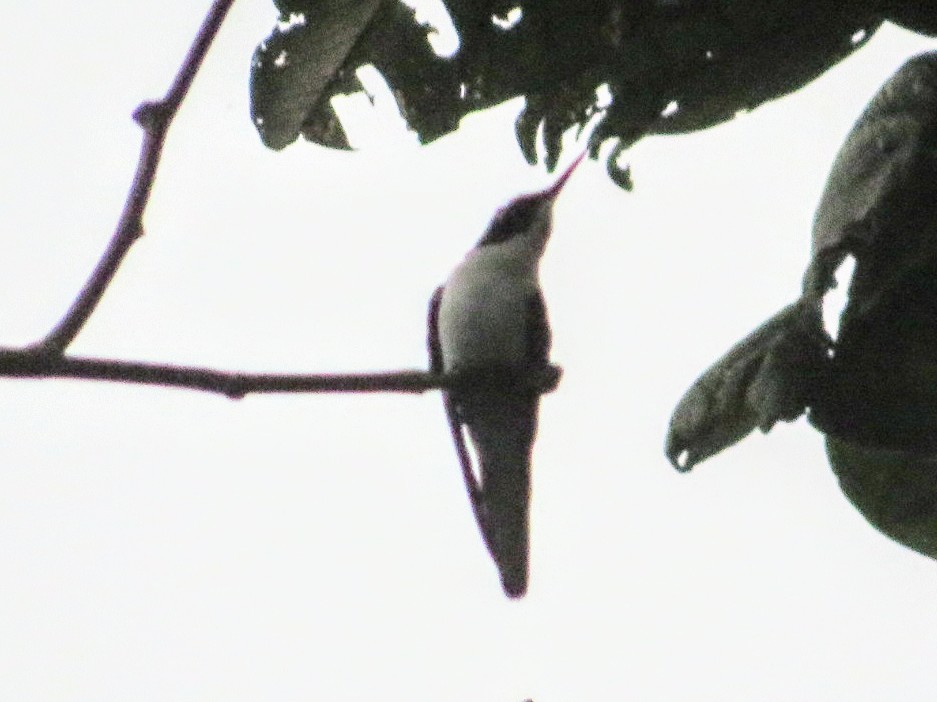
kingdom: Animalia
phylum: Chordata
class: Aves
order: Apodiformes
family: Trochilidae
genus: Heliothryx
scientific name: Heliothryx barroti
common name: Purple-crowned fairy
